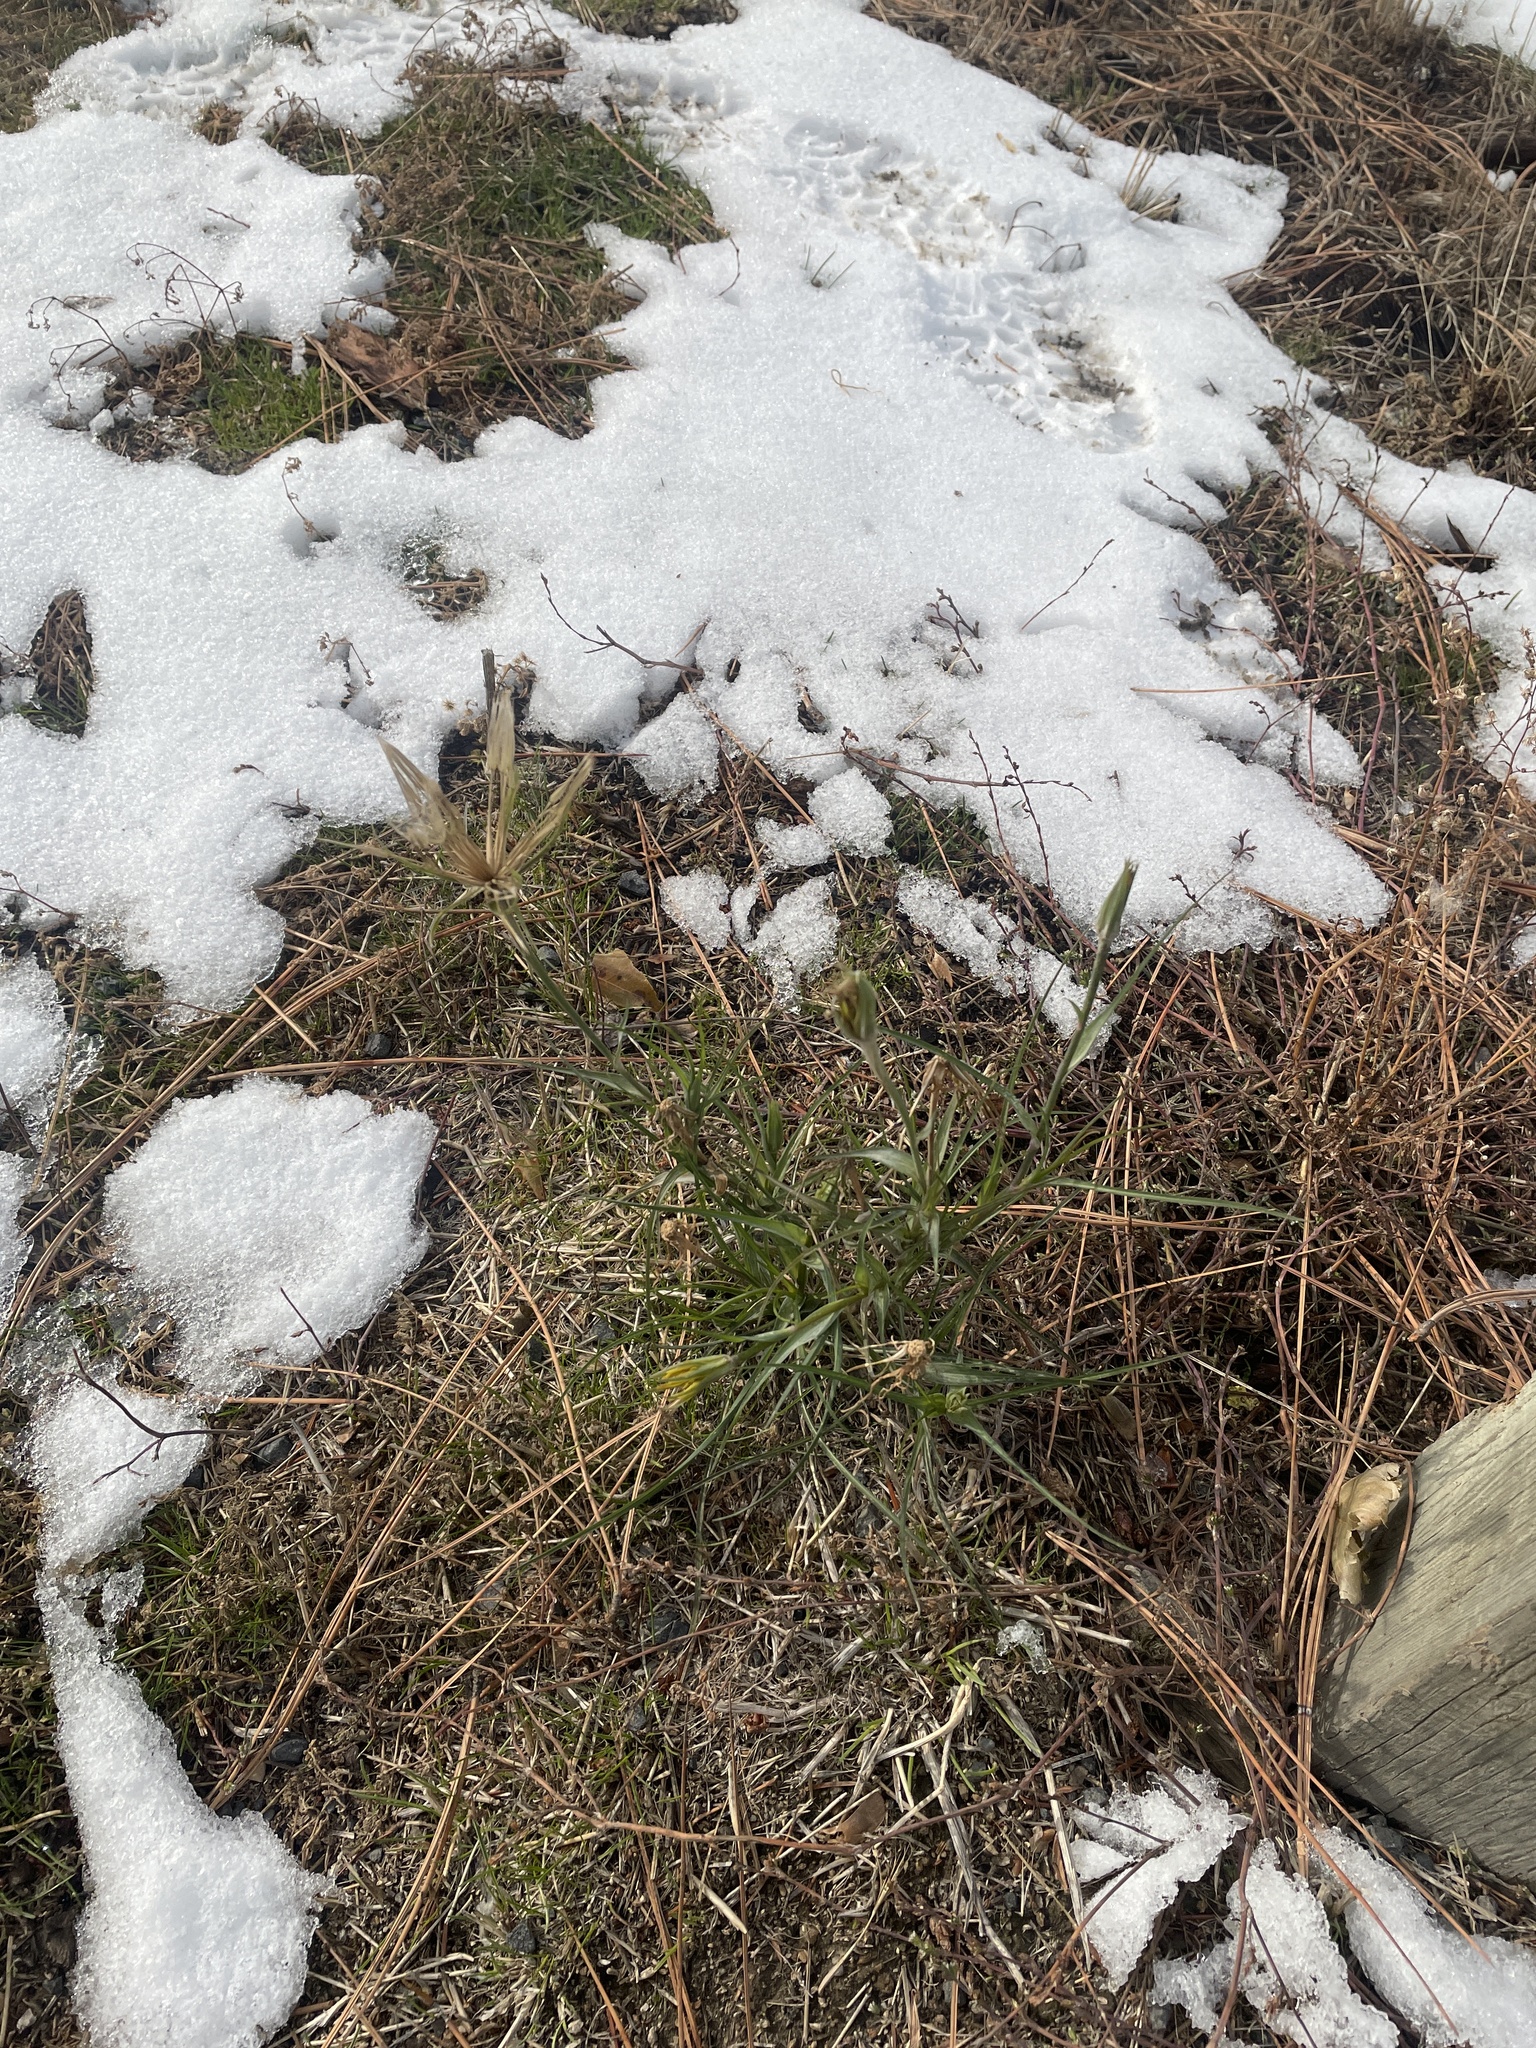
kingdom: Plantae
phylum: Tracheophyta
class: Magnoliopsida
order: Asterales
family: Asteraceae
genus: Tragopogon
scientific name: Tragopogon dubius
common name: Yellow salsify
